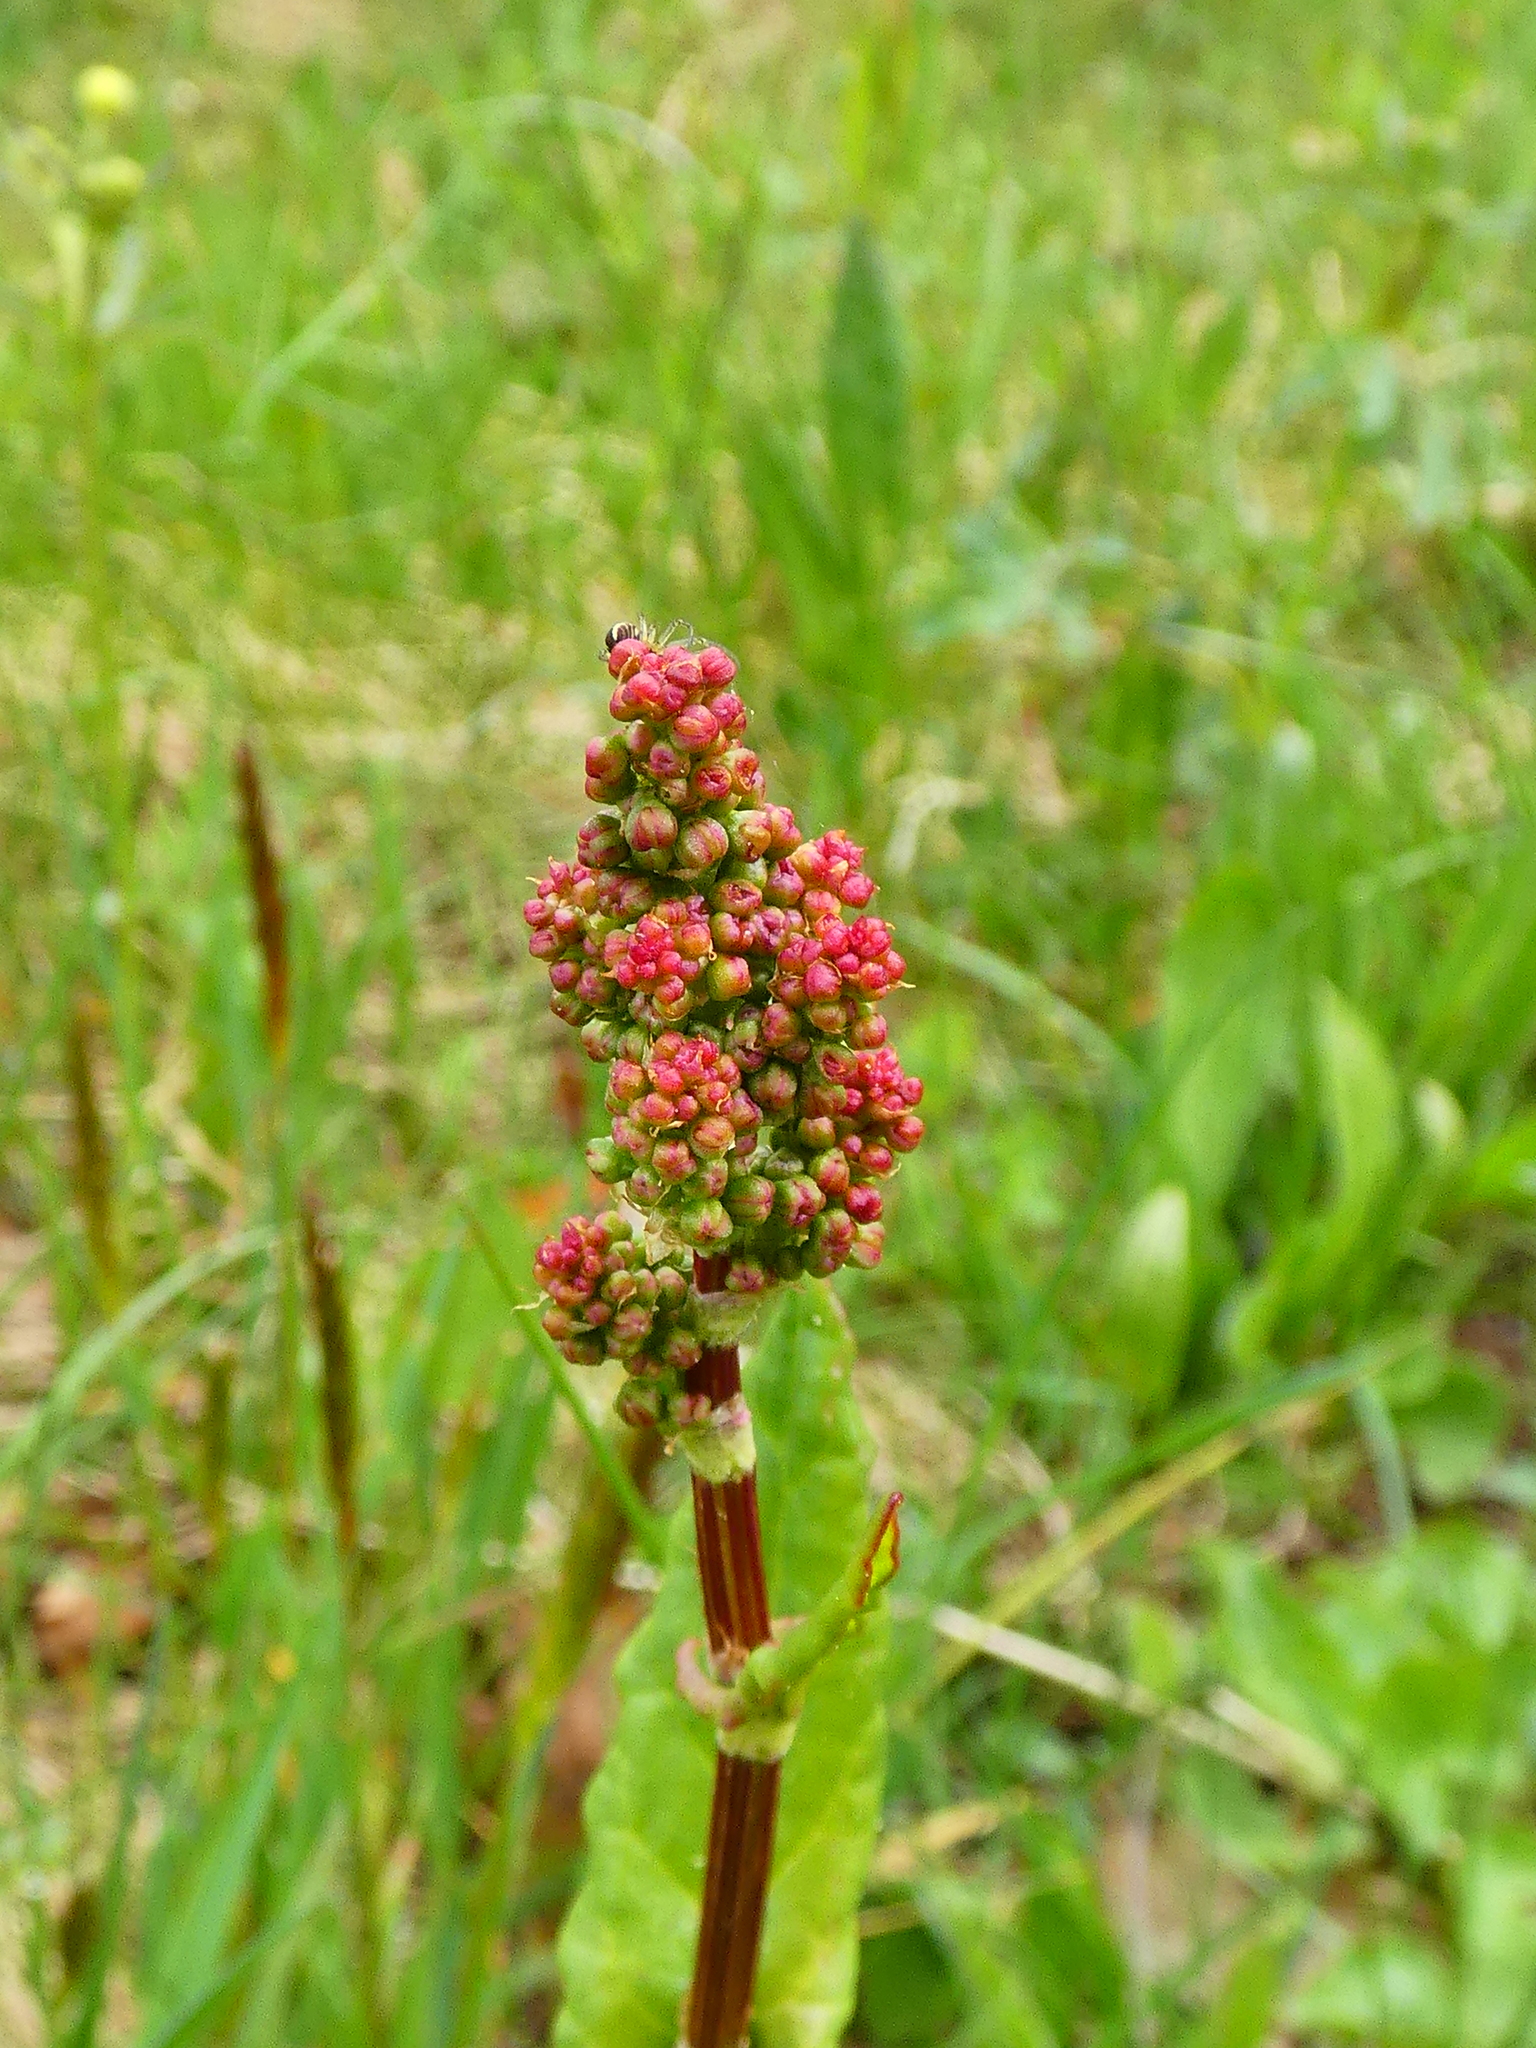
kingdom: Plantae
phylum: Tracheophyta
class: Magnoliopsida
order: Caryophyllales
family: Polygonaceae
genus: Rumex
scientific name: Rumex acetosa
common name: Garden sorrel
